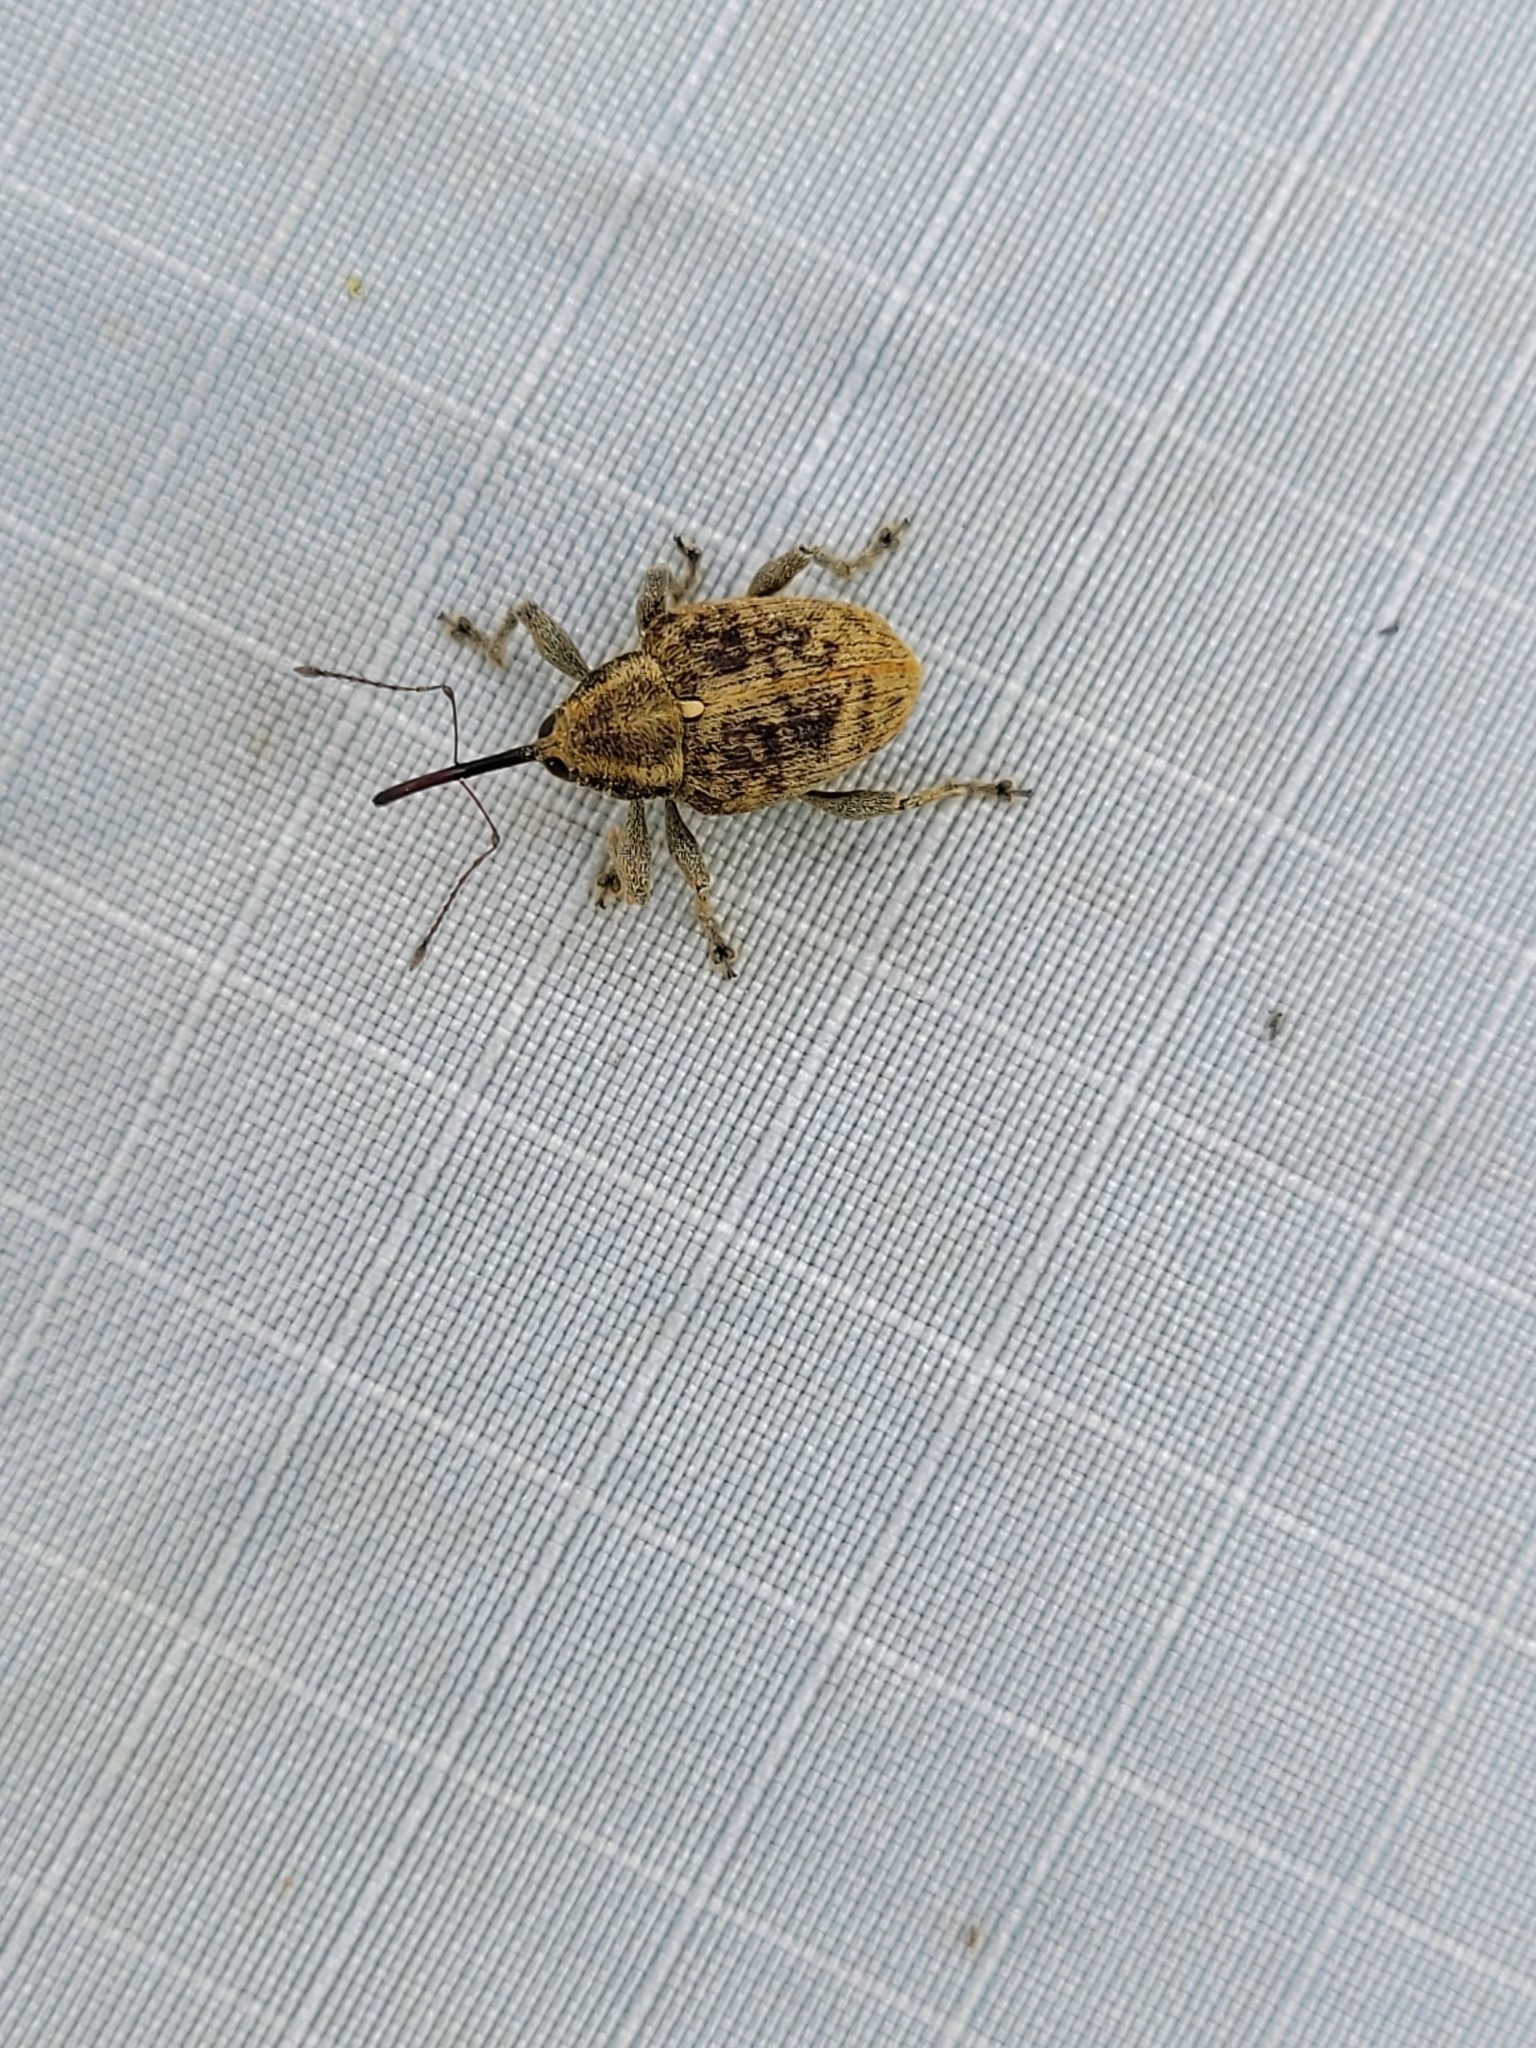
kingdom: Animalia
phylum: Arthropoda
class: Insecta
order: Coleoptera
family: Curculionidae
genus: Curculio
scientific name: Curculio obtusus
